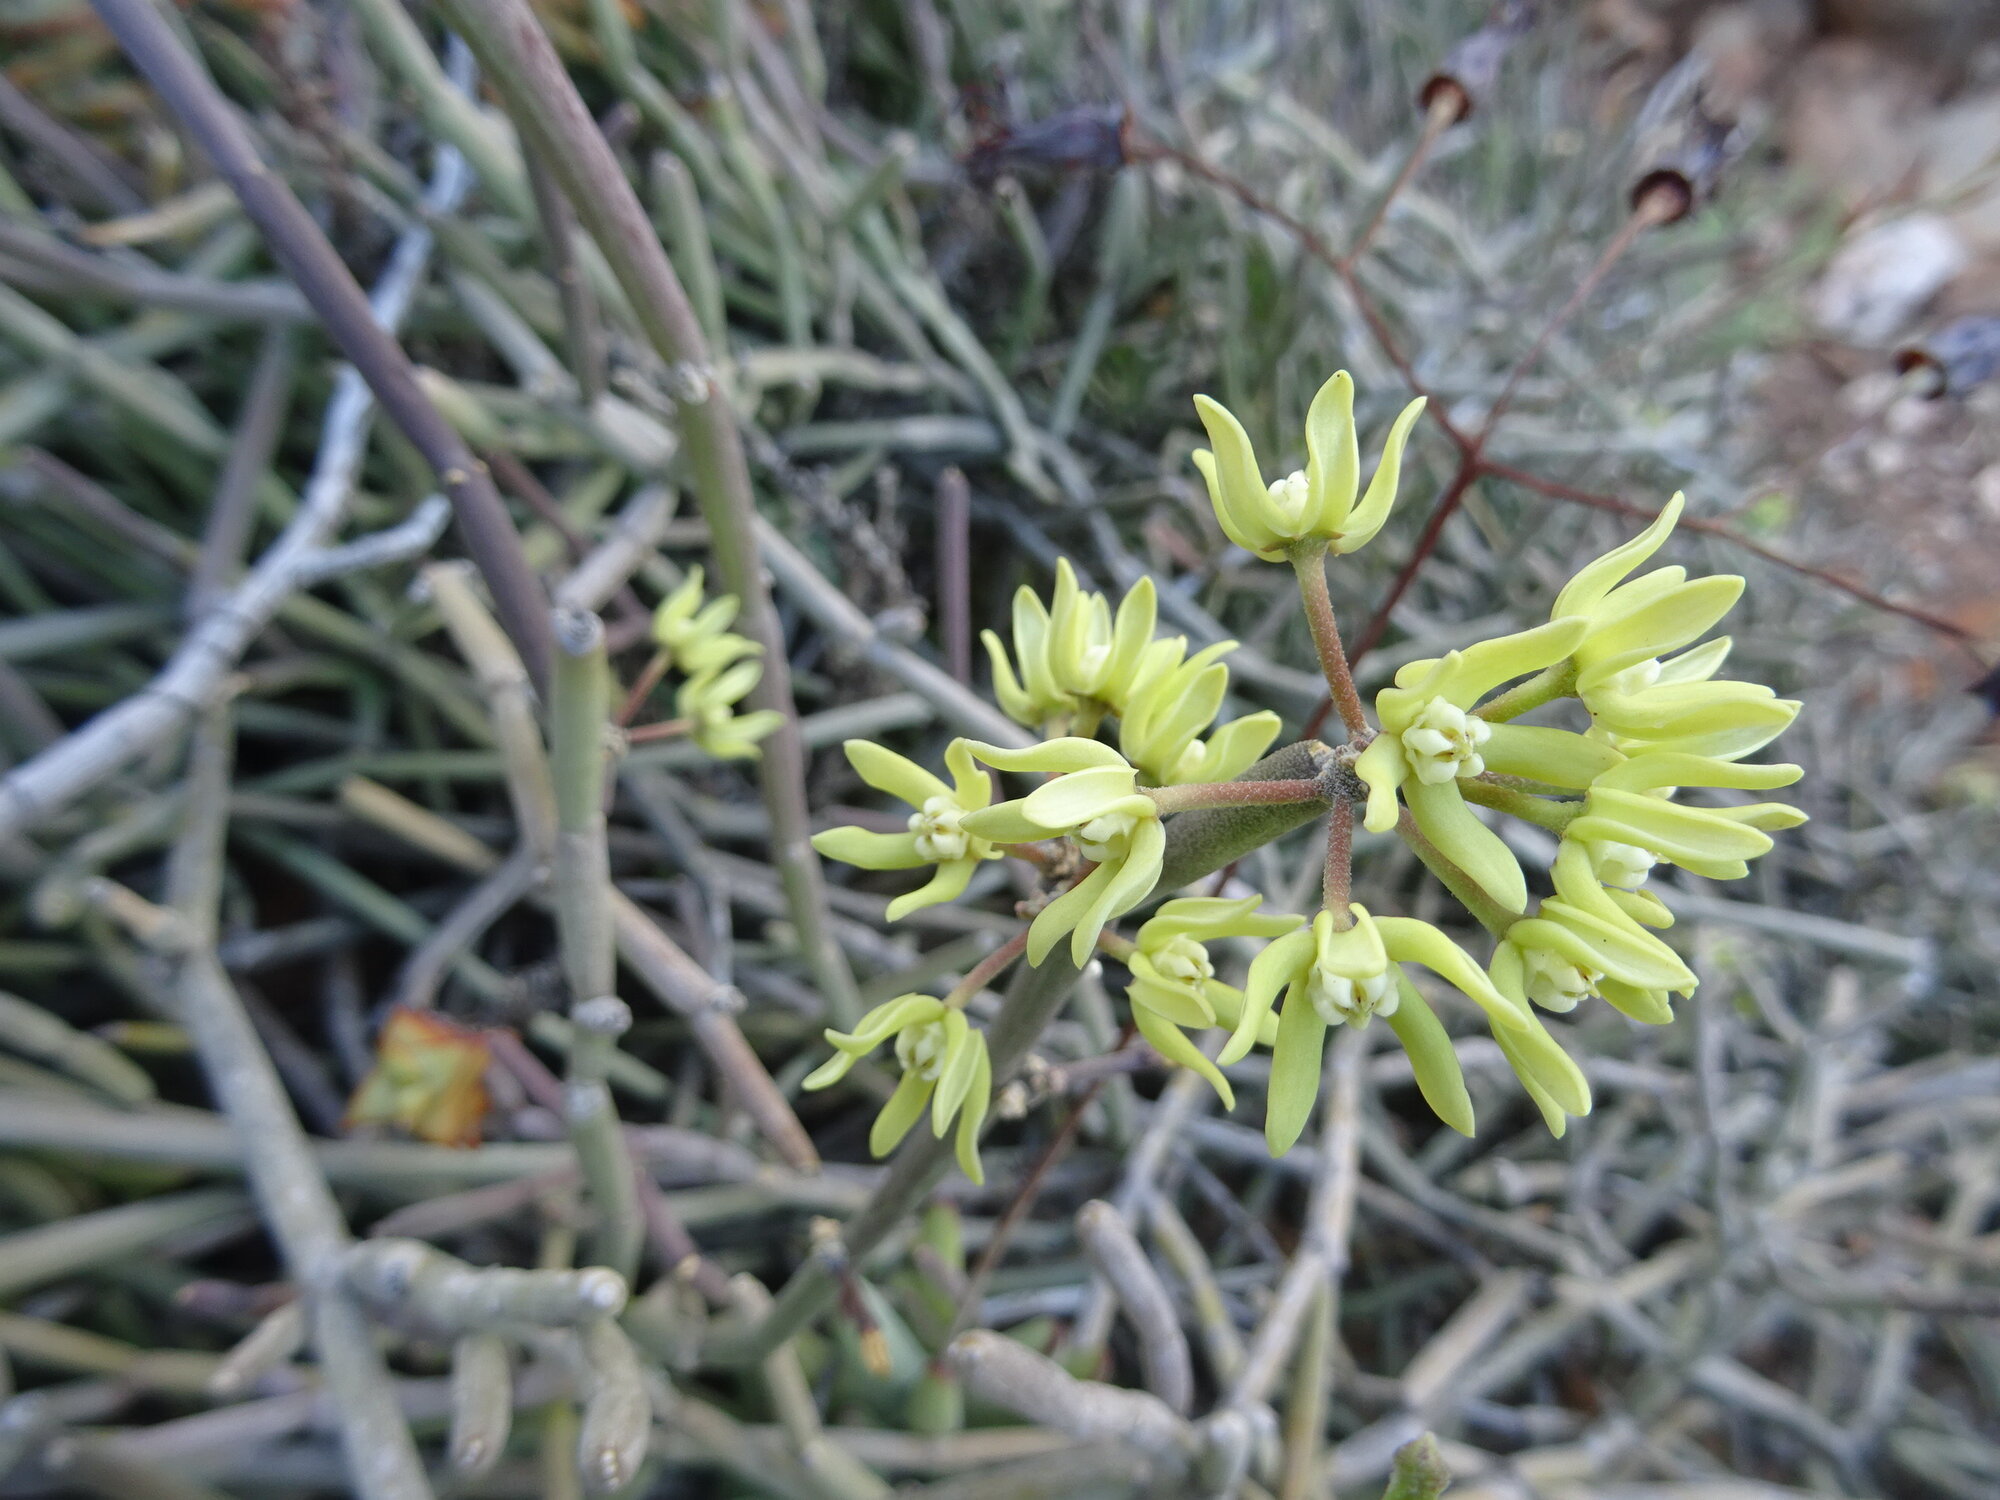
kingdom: Plantae
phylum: Tracheophyta
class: Magnoliopsida
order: Gentianales
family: Apocynaceae
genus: Cynanchum
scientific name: Cynanchum viminale
